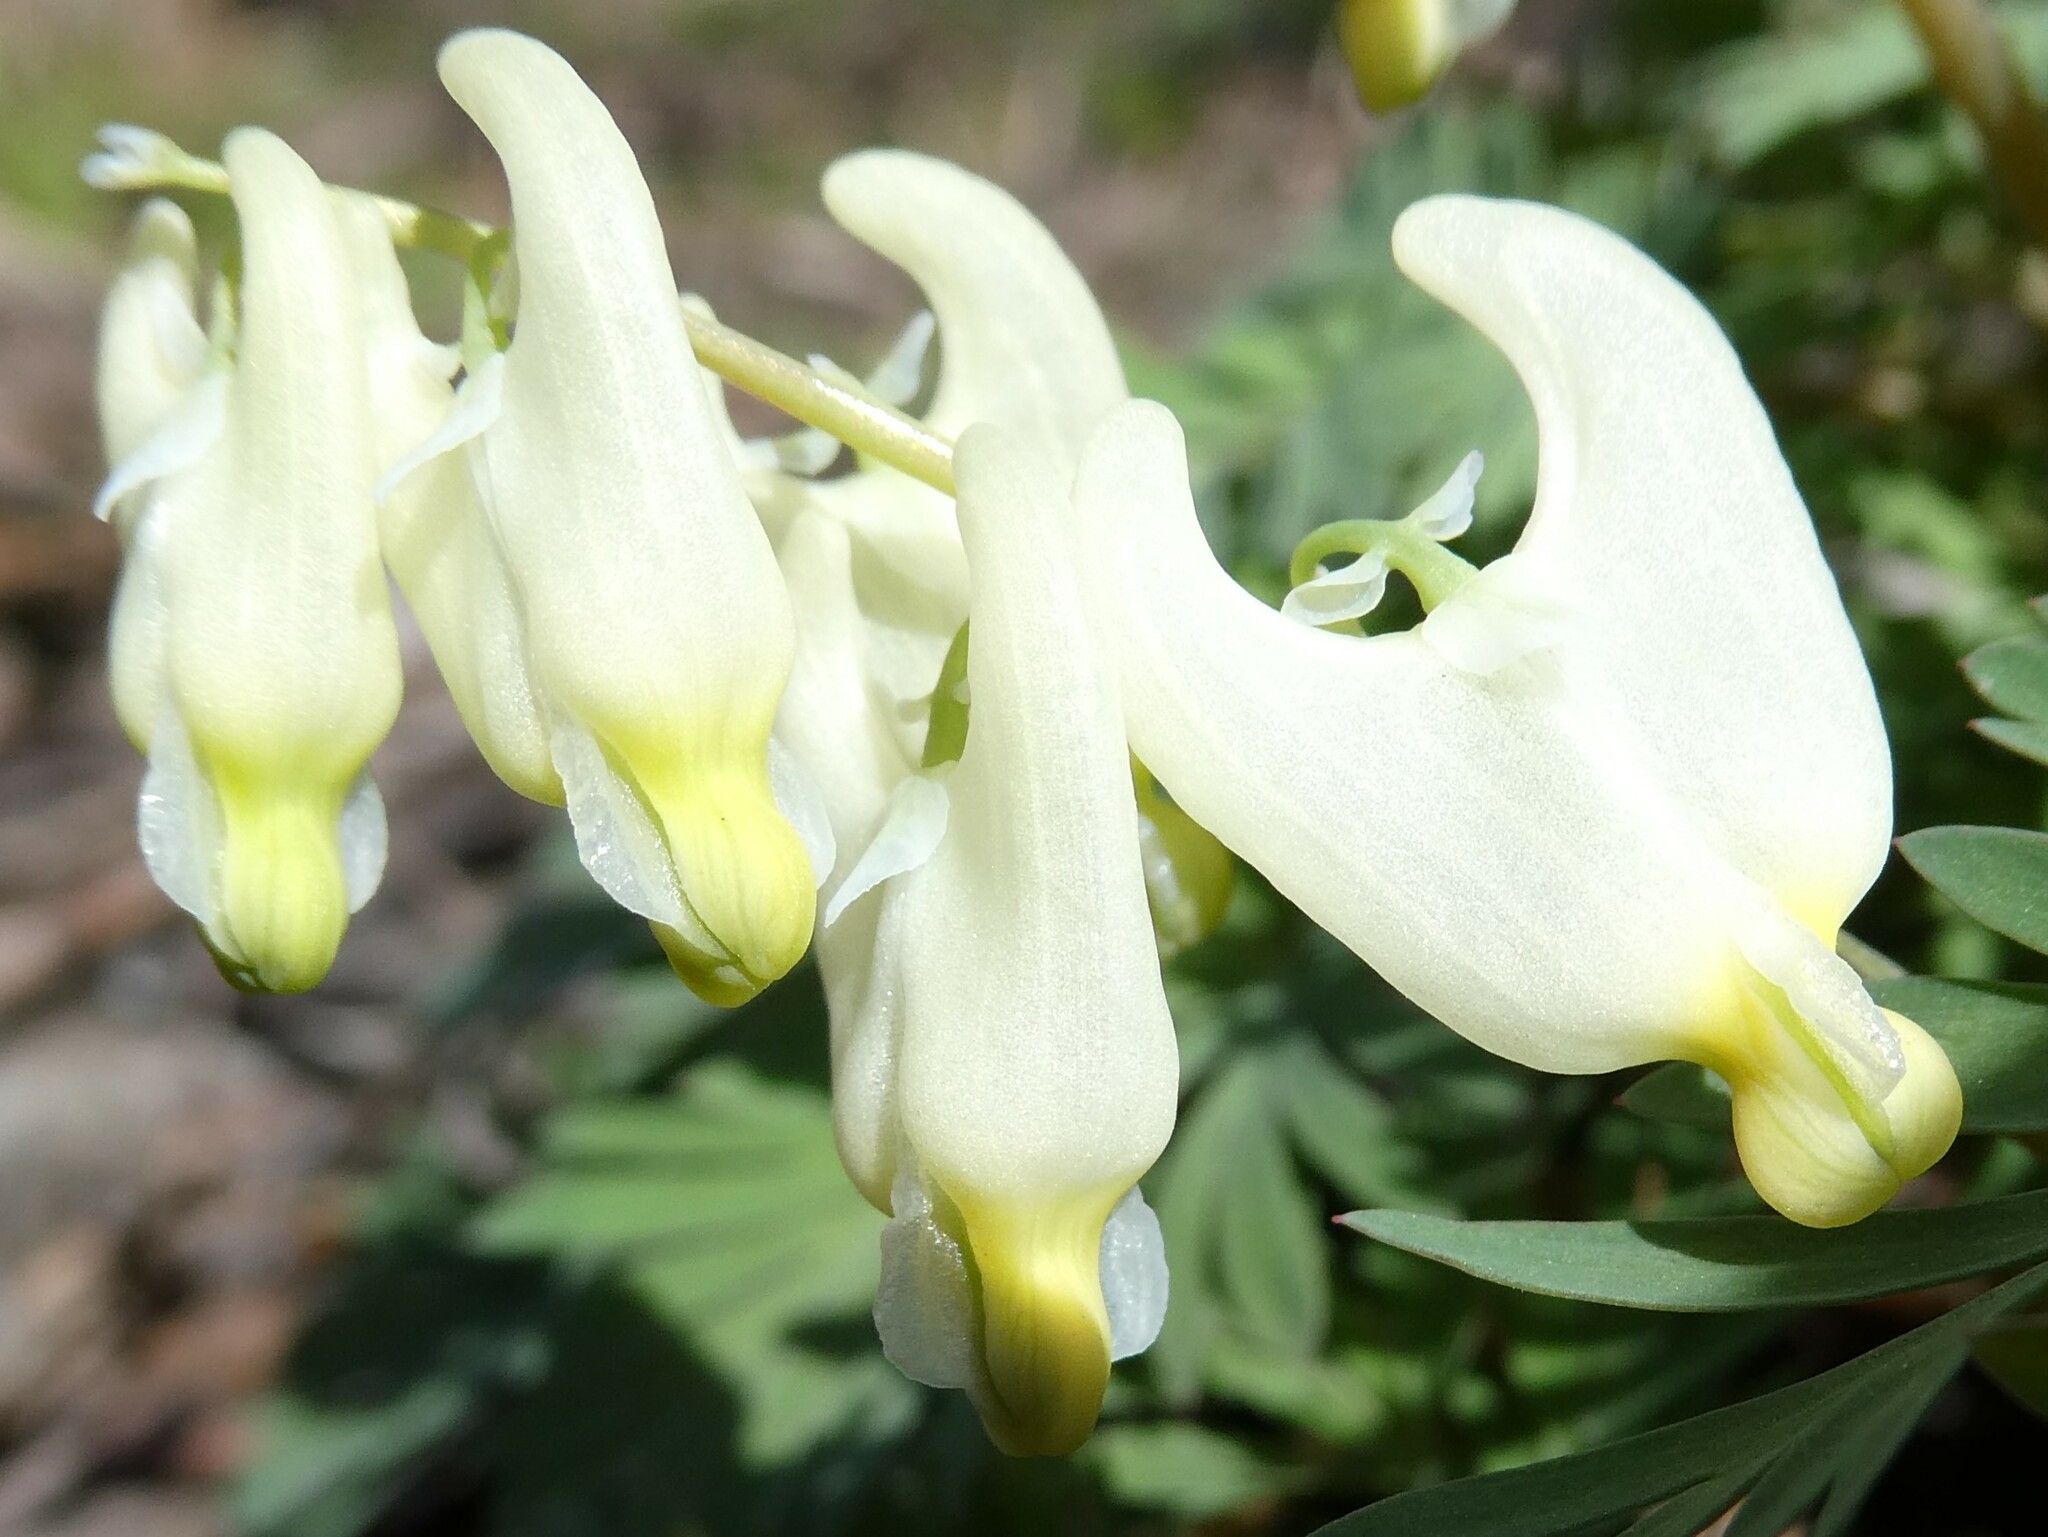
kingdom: Plantae
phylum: Tracheophyta
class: Magnoliopsida
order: Ranunculales
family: Papaveraceae
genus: Dicentra
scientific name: Dicentra cucullaria
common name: Dutchman's breeches
